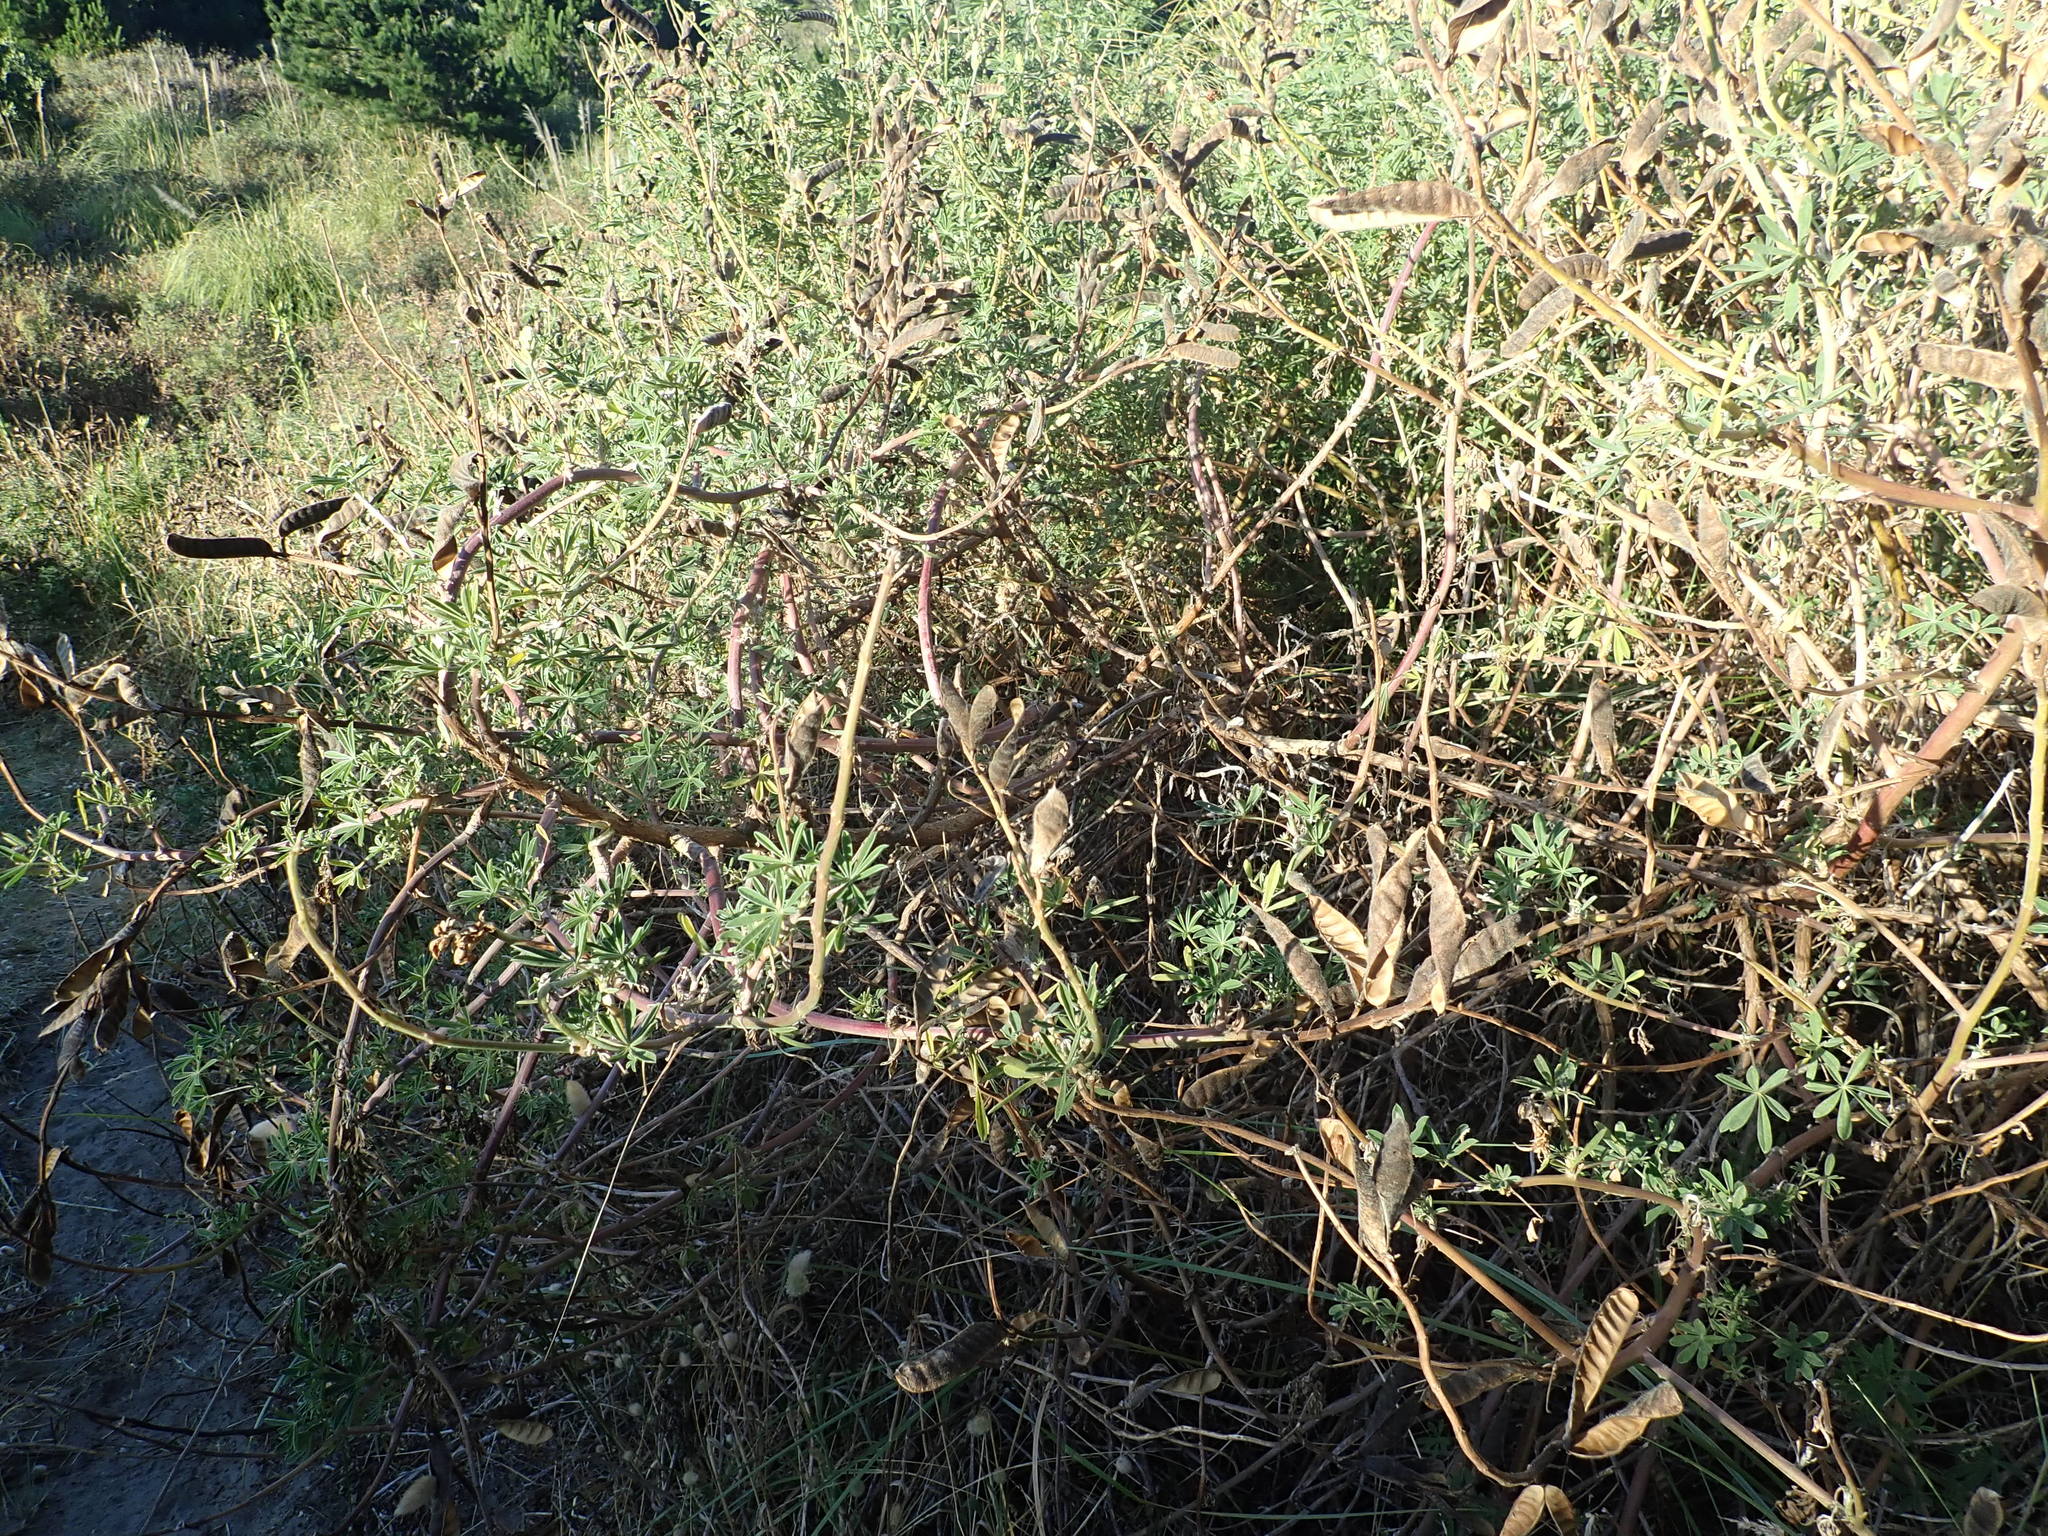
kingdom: Plantae
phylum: Tracheophyta
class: Magnoliopsida
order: Fabales
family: Fabaceae
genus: Lupinus
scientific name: Lupinus arboreus
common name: Yellow bush lupine
